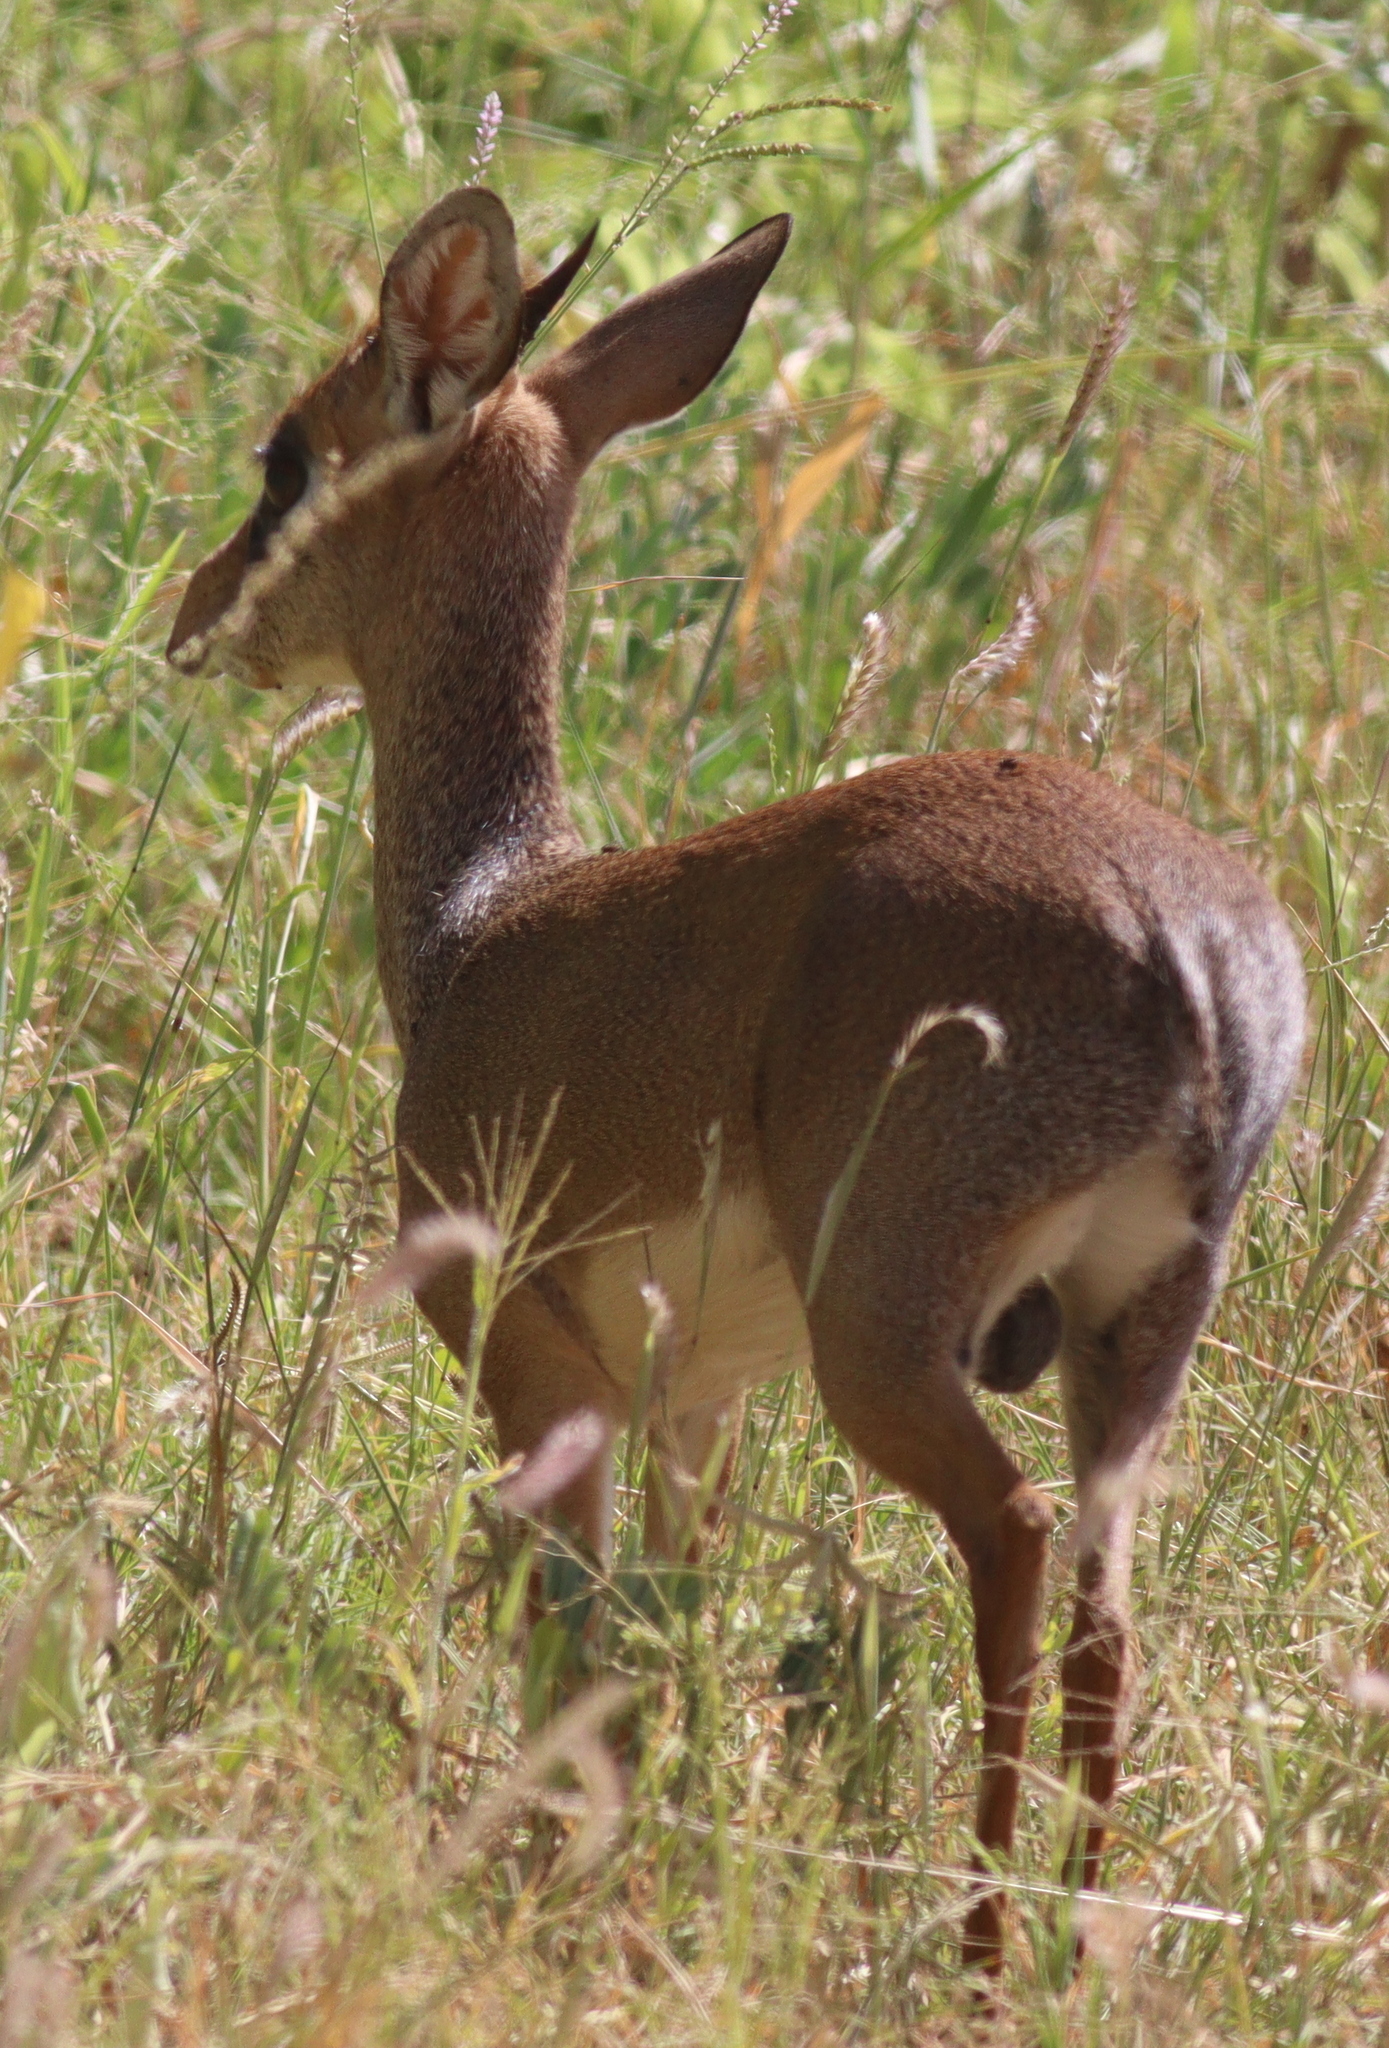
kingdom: Animalia
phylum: Chordata
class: Mammalia
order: Artiodactyla
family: Bovidae
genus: Madoqua
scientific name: Madoqua
